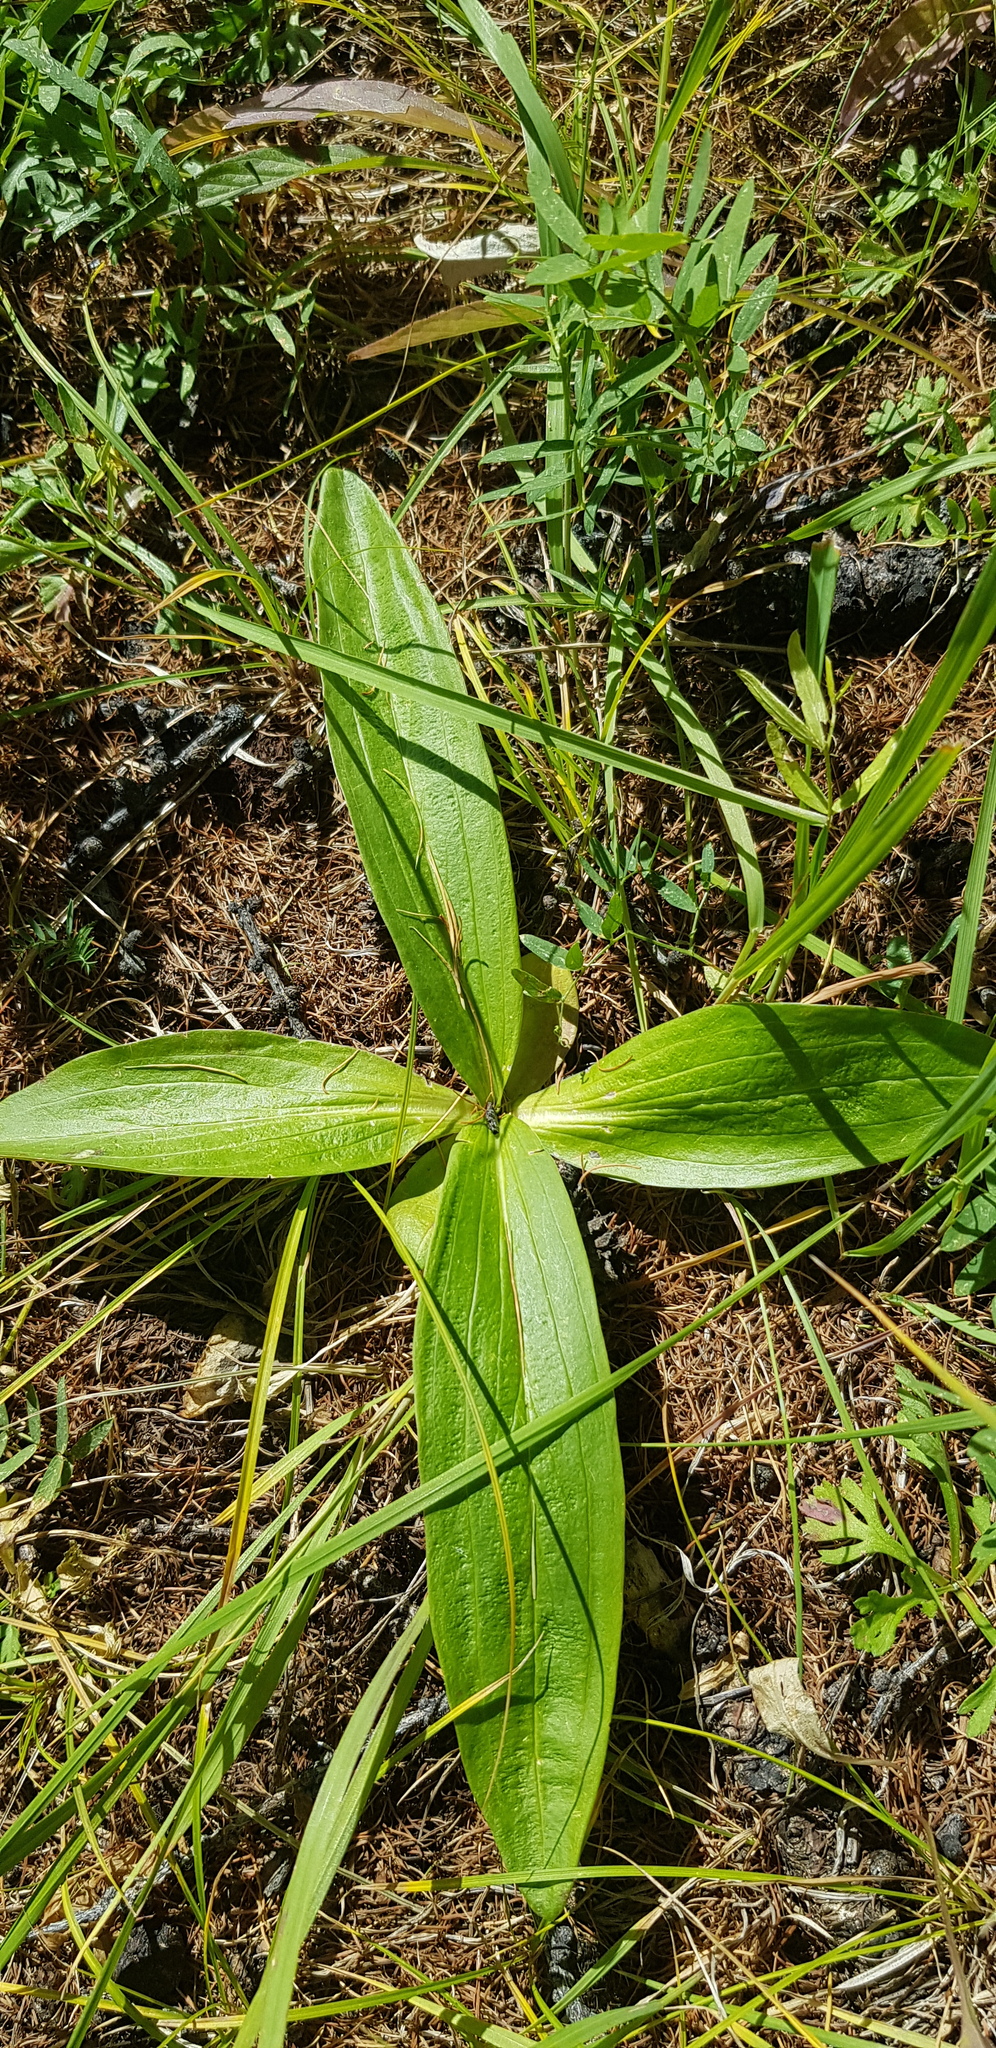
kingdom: Plantae
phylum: Tracheophyta
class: Magnoliopsida
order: Gentianales
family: Gentianaceae
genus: Gentiana
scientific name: Gentiana macrophylla
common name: Large-leaf gentian
